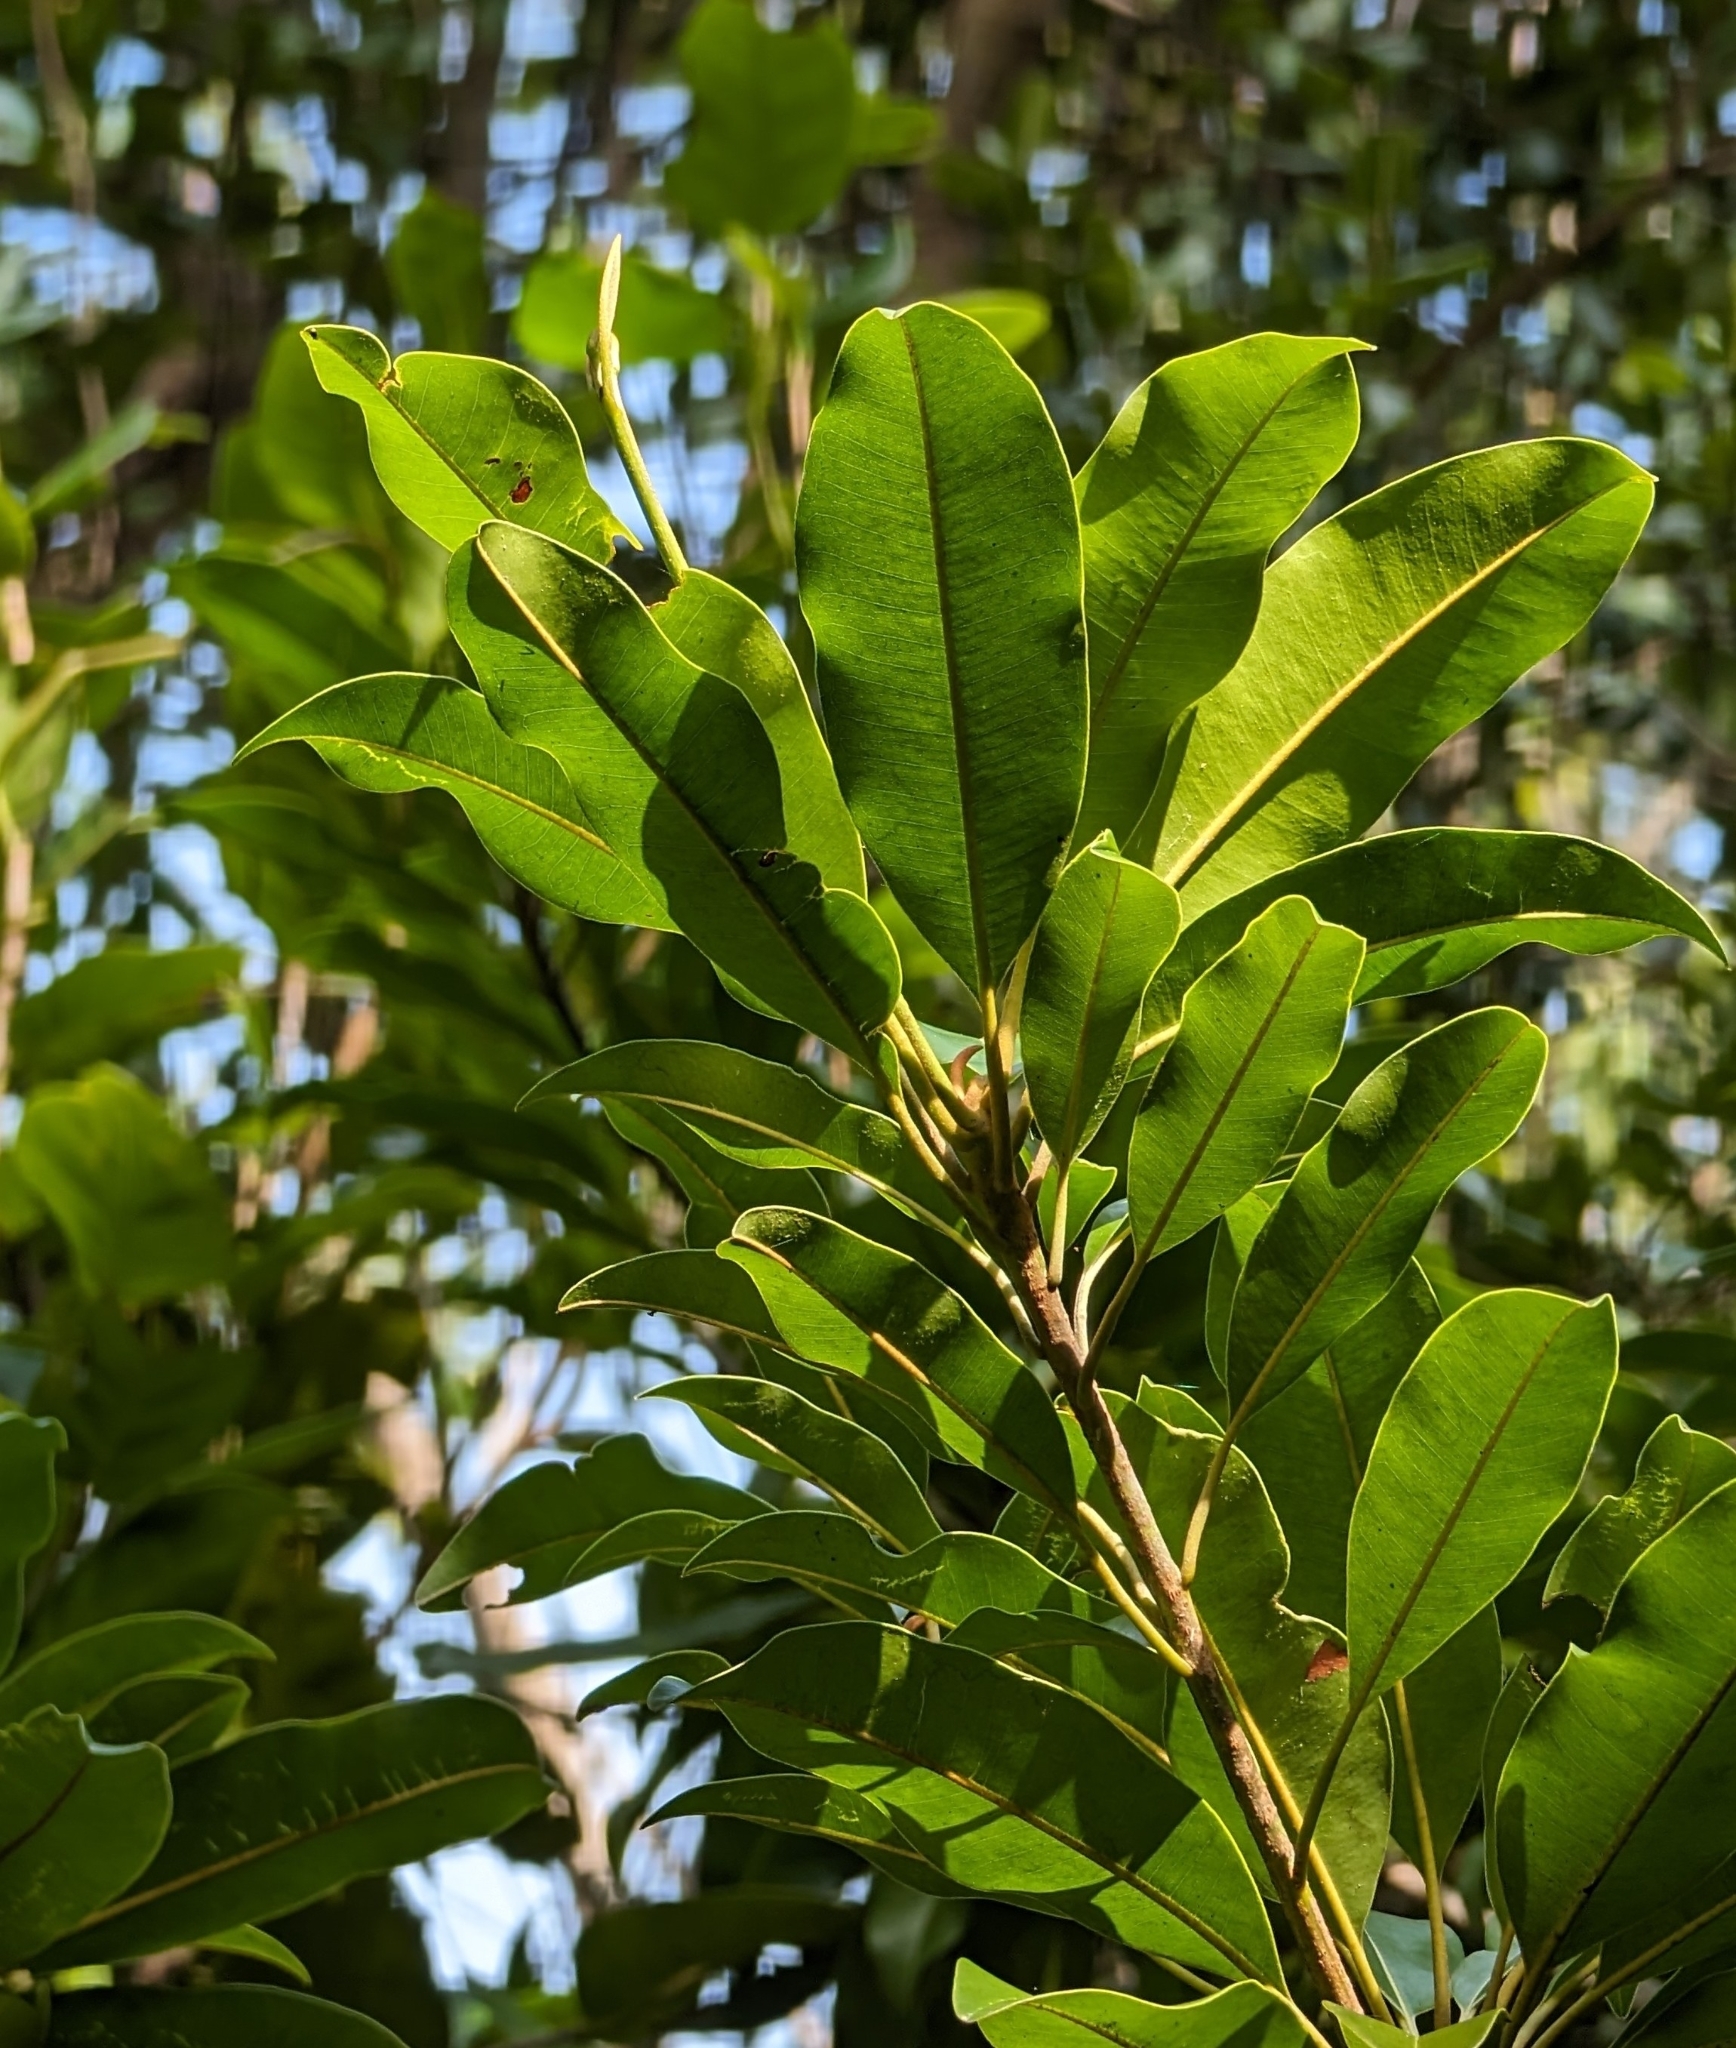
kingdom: Plantae
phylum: Tracheophyta
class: Magnoliopsida
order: Ericales
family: Sapotaceae
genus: Manilkara
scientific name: Manilkara jaimiqui
